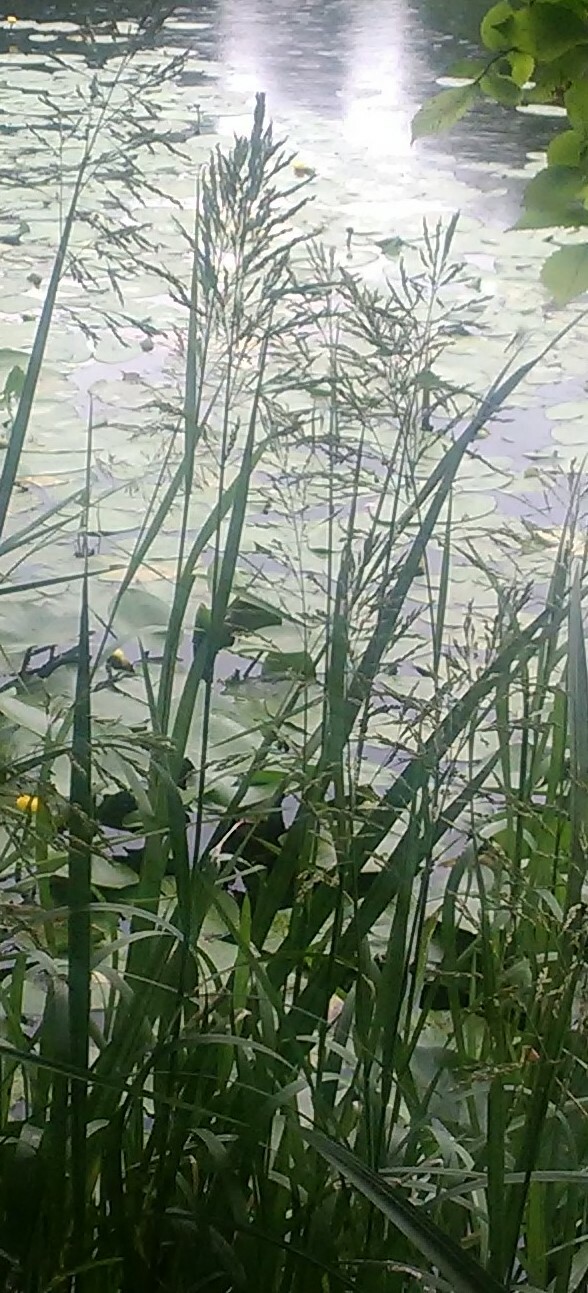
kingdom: Plantae
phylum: Tracheophyta
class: Liliopsida
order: Poales
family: Poaceae
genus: Glyceria
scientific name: Glyceria maxima
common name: Reed mannagrass
